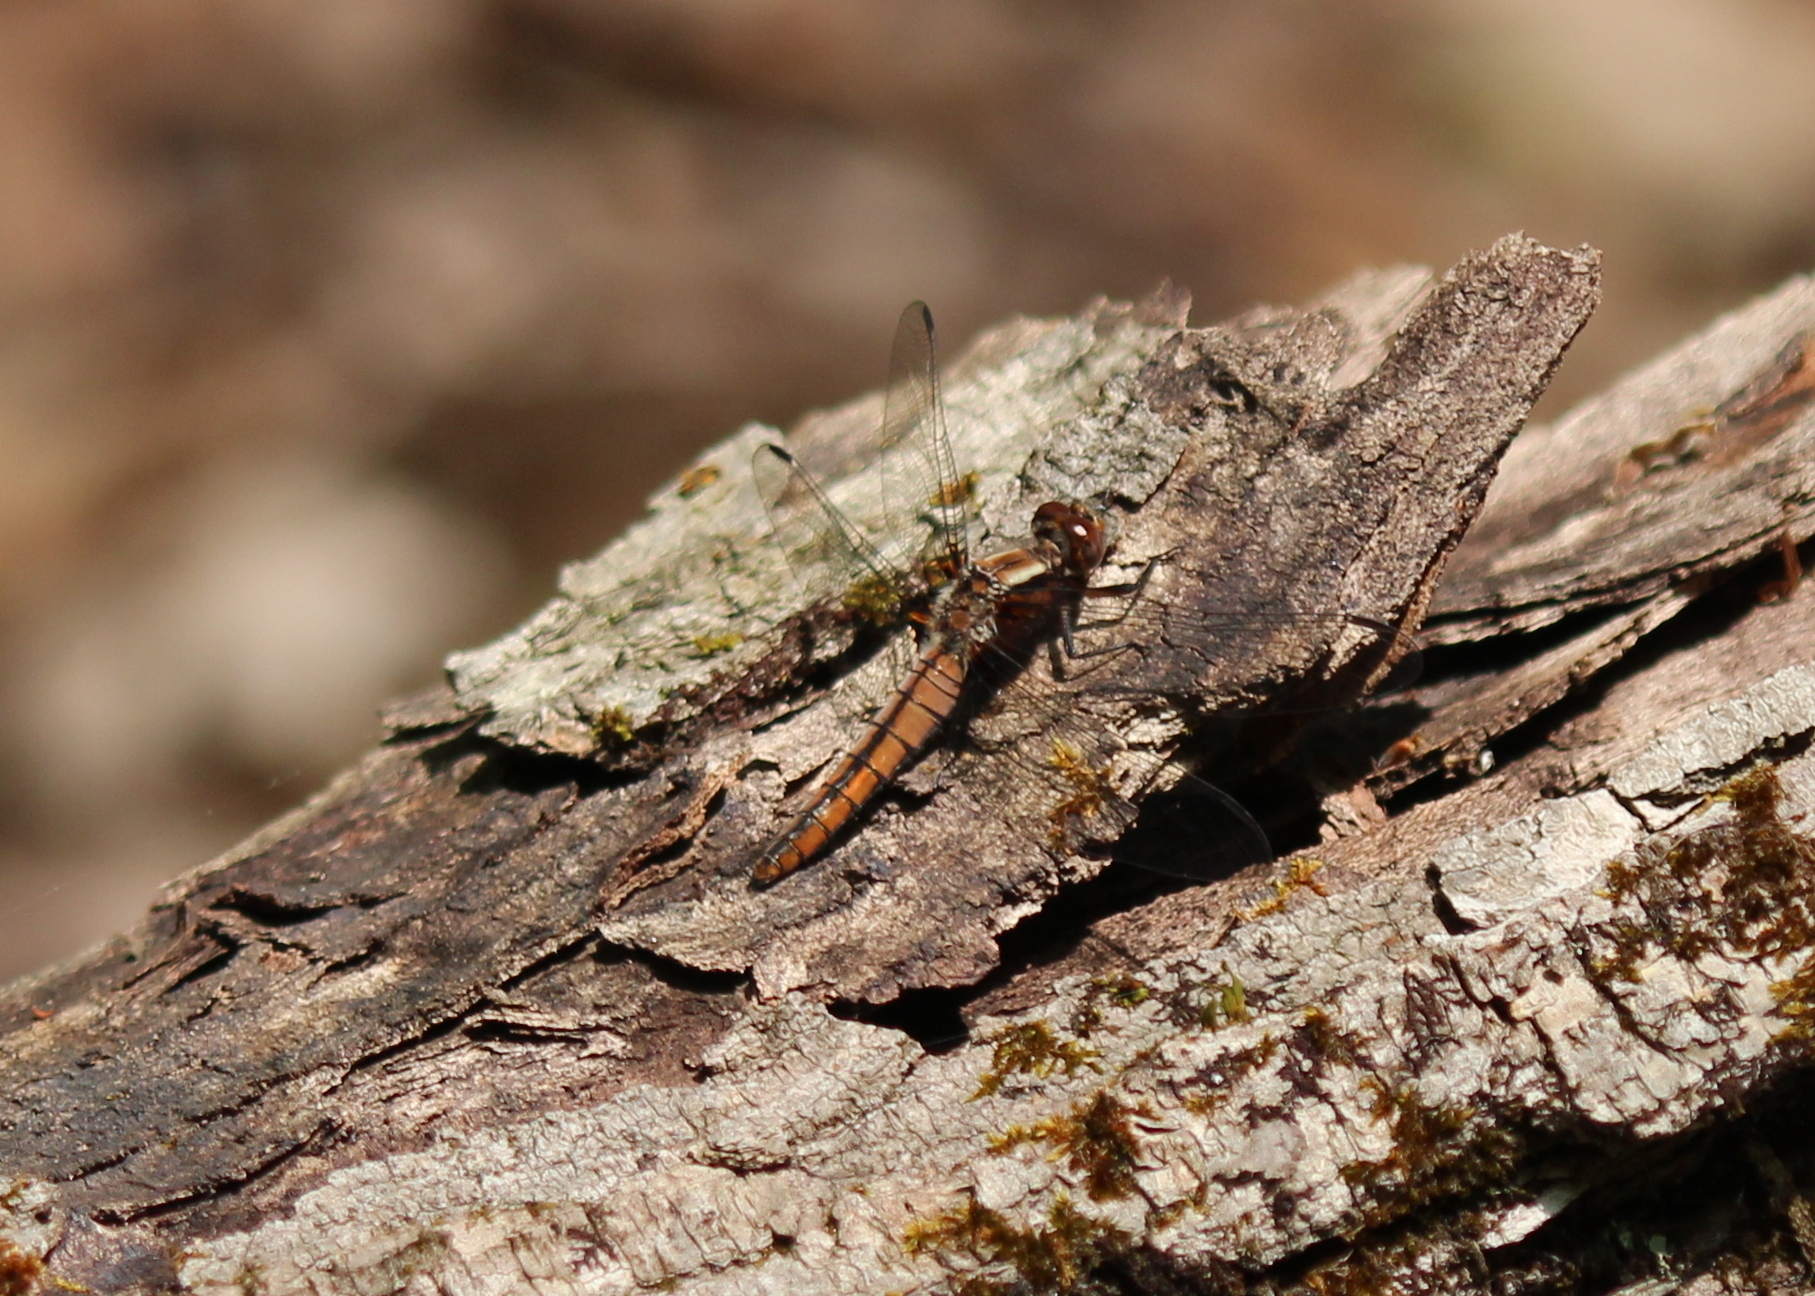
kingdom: Animalia
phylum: Arthropoda
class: Insecta
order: Odonata
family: Libellulidae
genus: Ladona
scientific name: Ladona julia
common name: Chalk-fronted corporal
